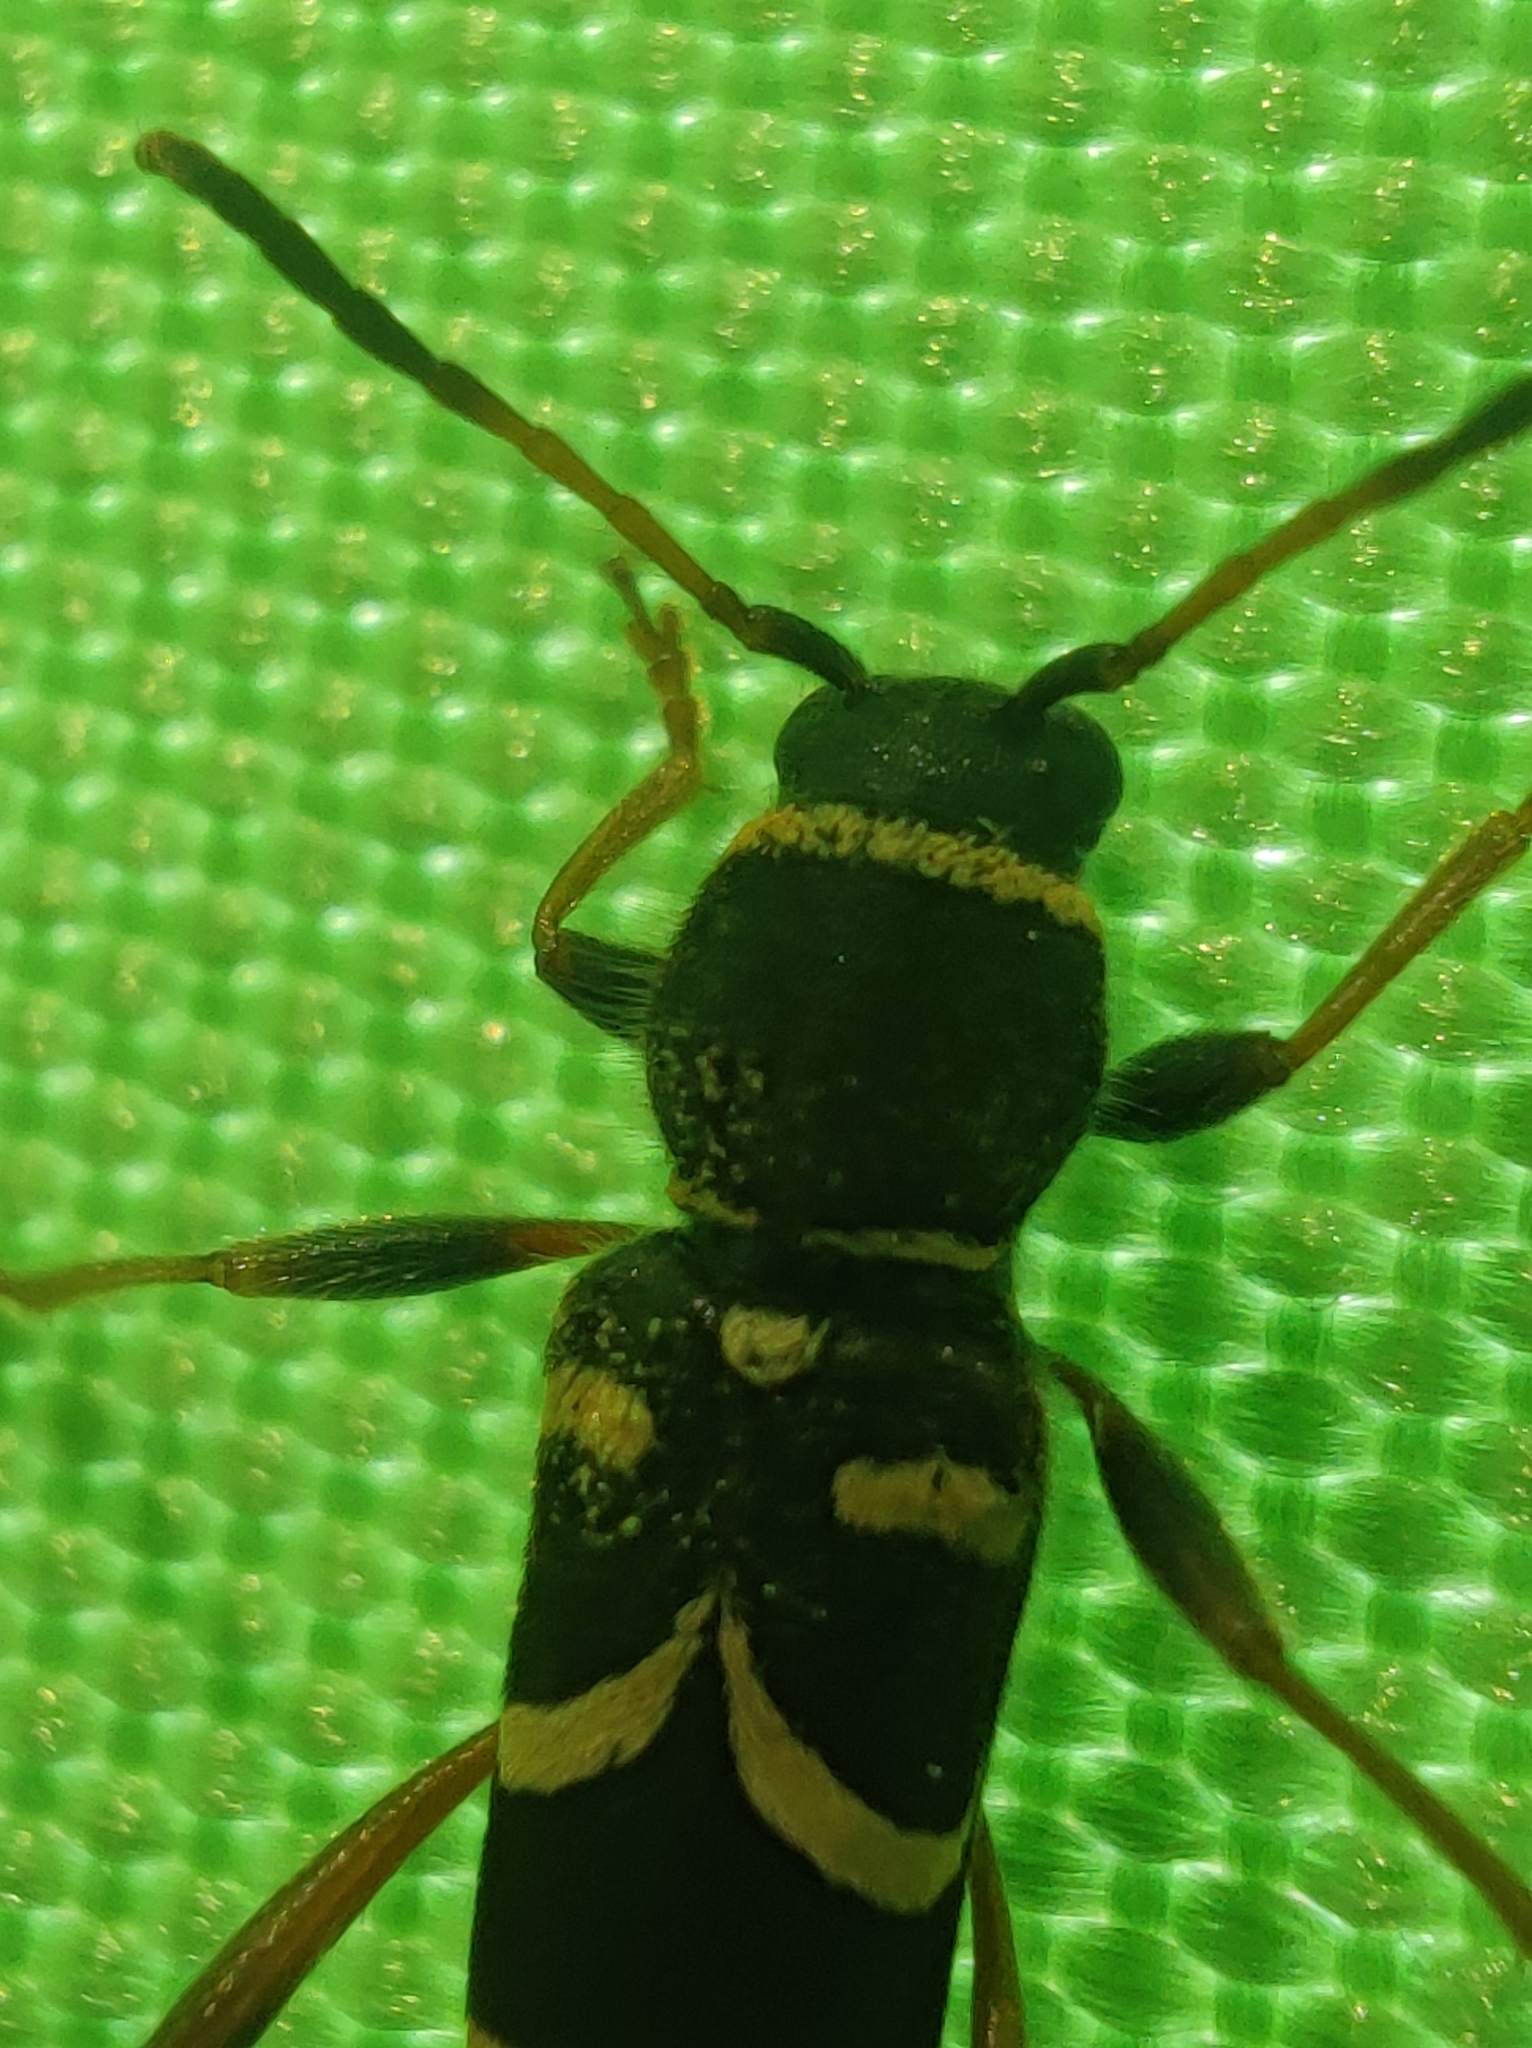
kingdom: Animalia
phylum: Arthropoda
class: Insecta
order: Coleoptera
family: Cerambycidae
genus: Clytus
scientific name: Clytus arietis
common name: Wasp beetle
